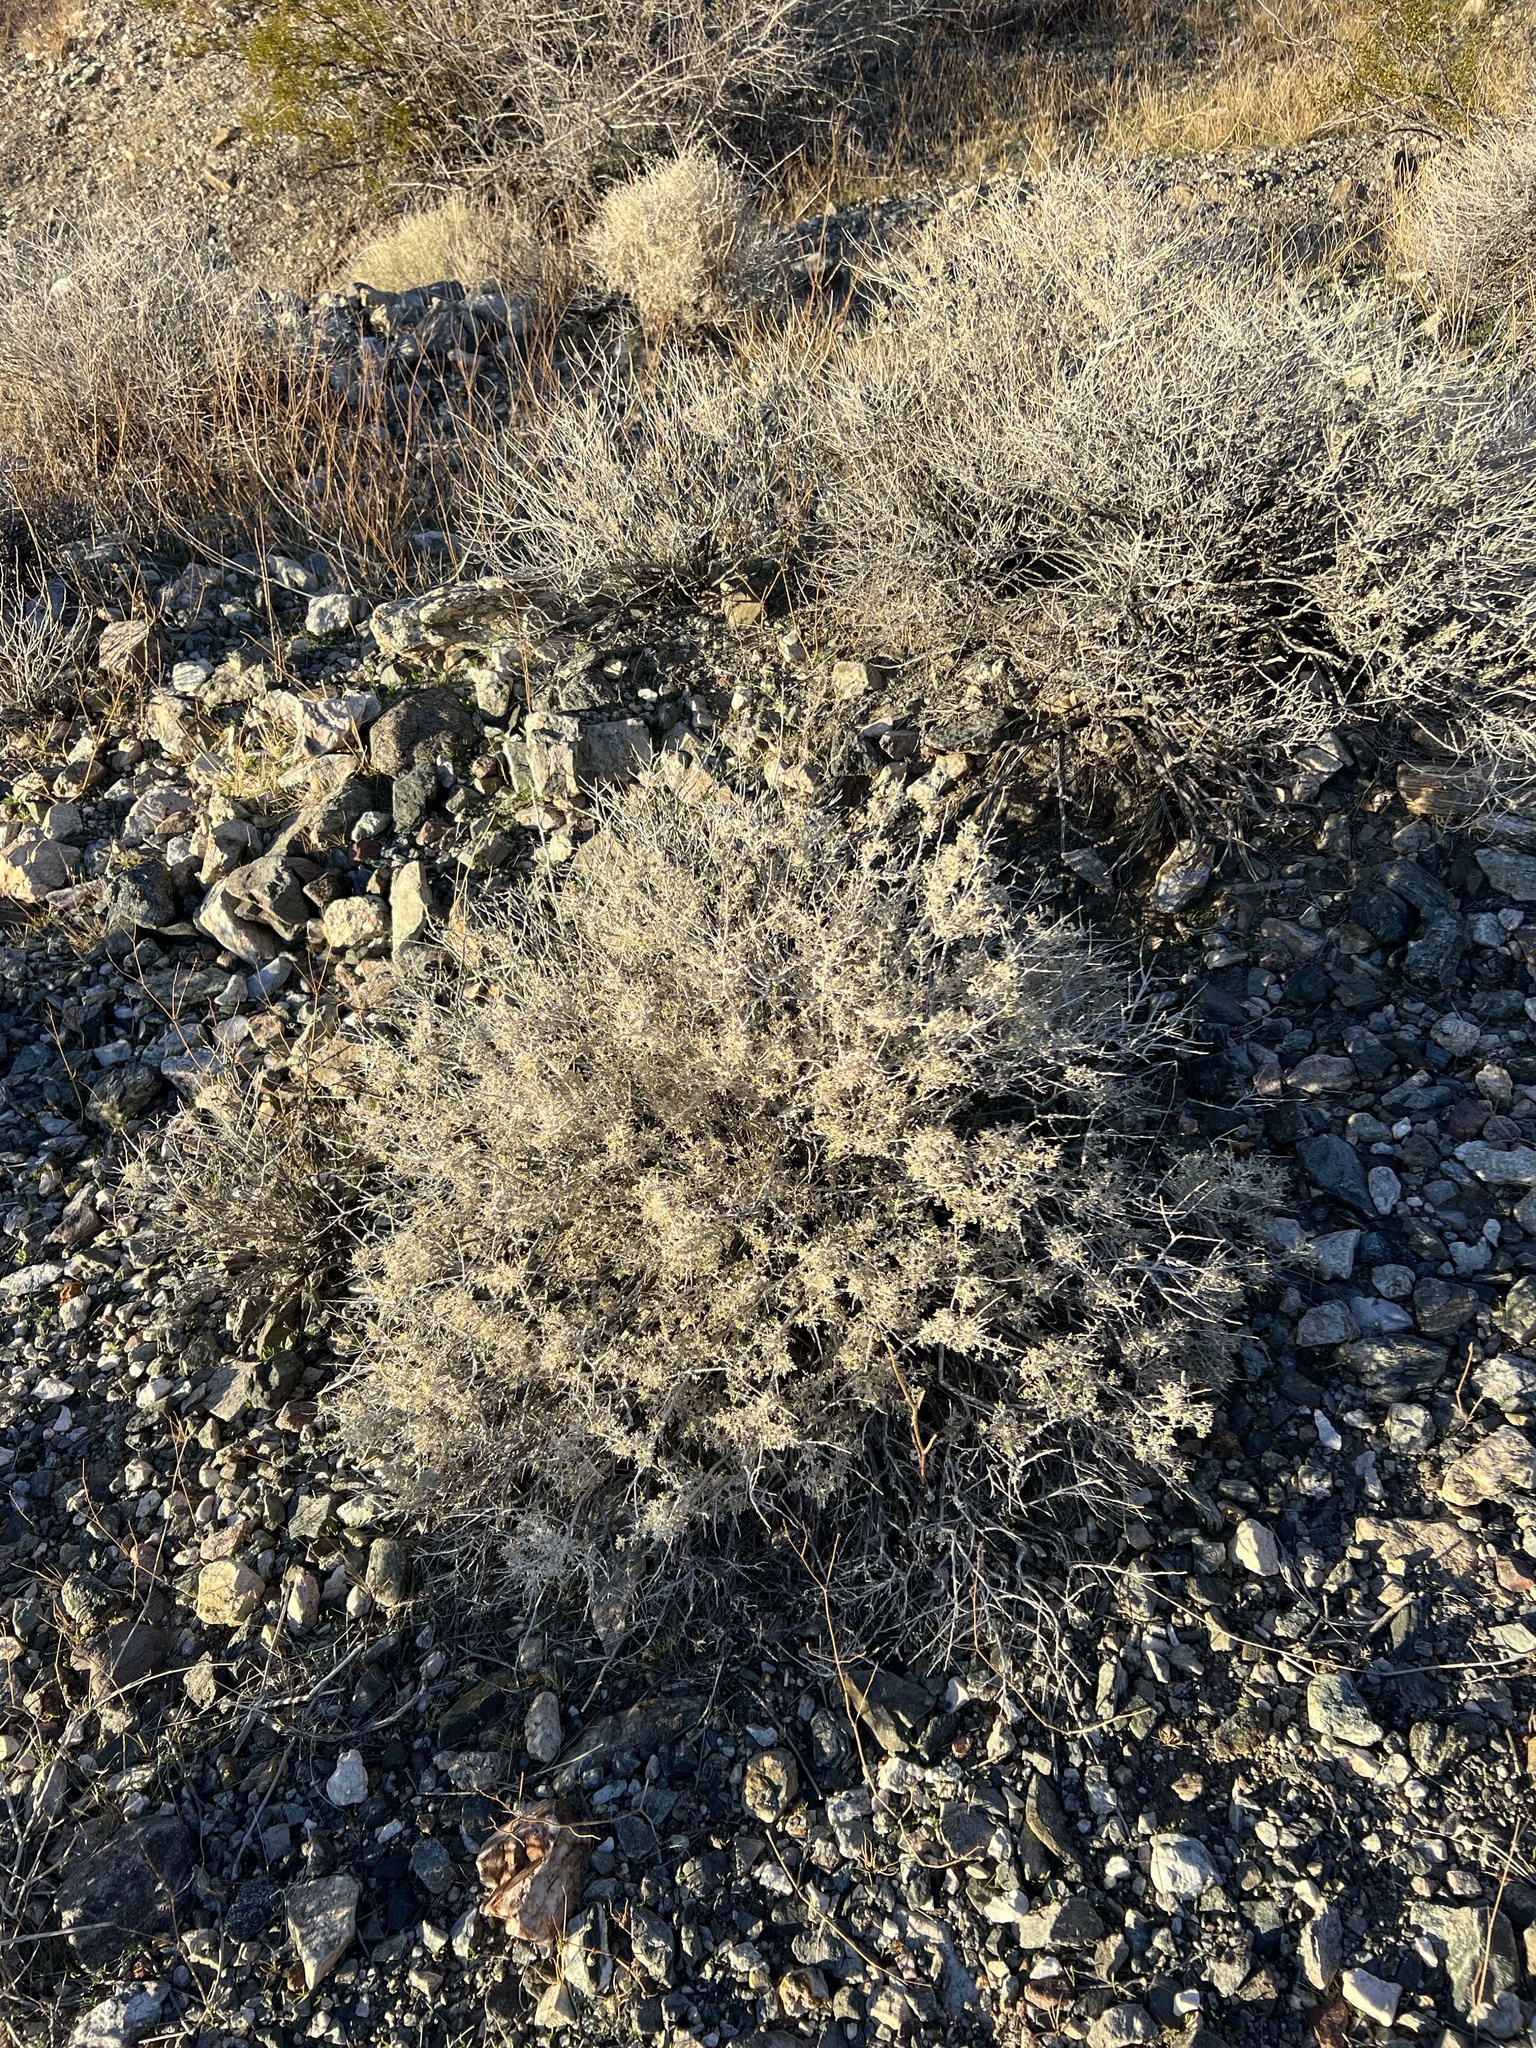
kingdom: Plantae
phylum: Tracheophyta
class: Magnoliopsida
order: Asterales
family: Asteraceae
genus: Ambrosia
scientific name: Ambrosia dumosa
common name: Bur-sage
